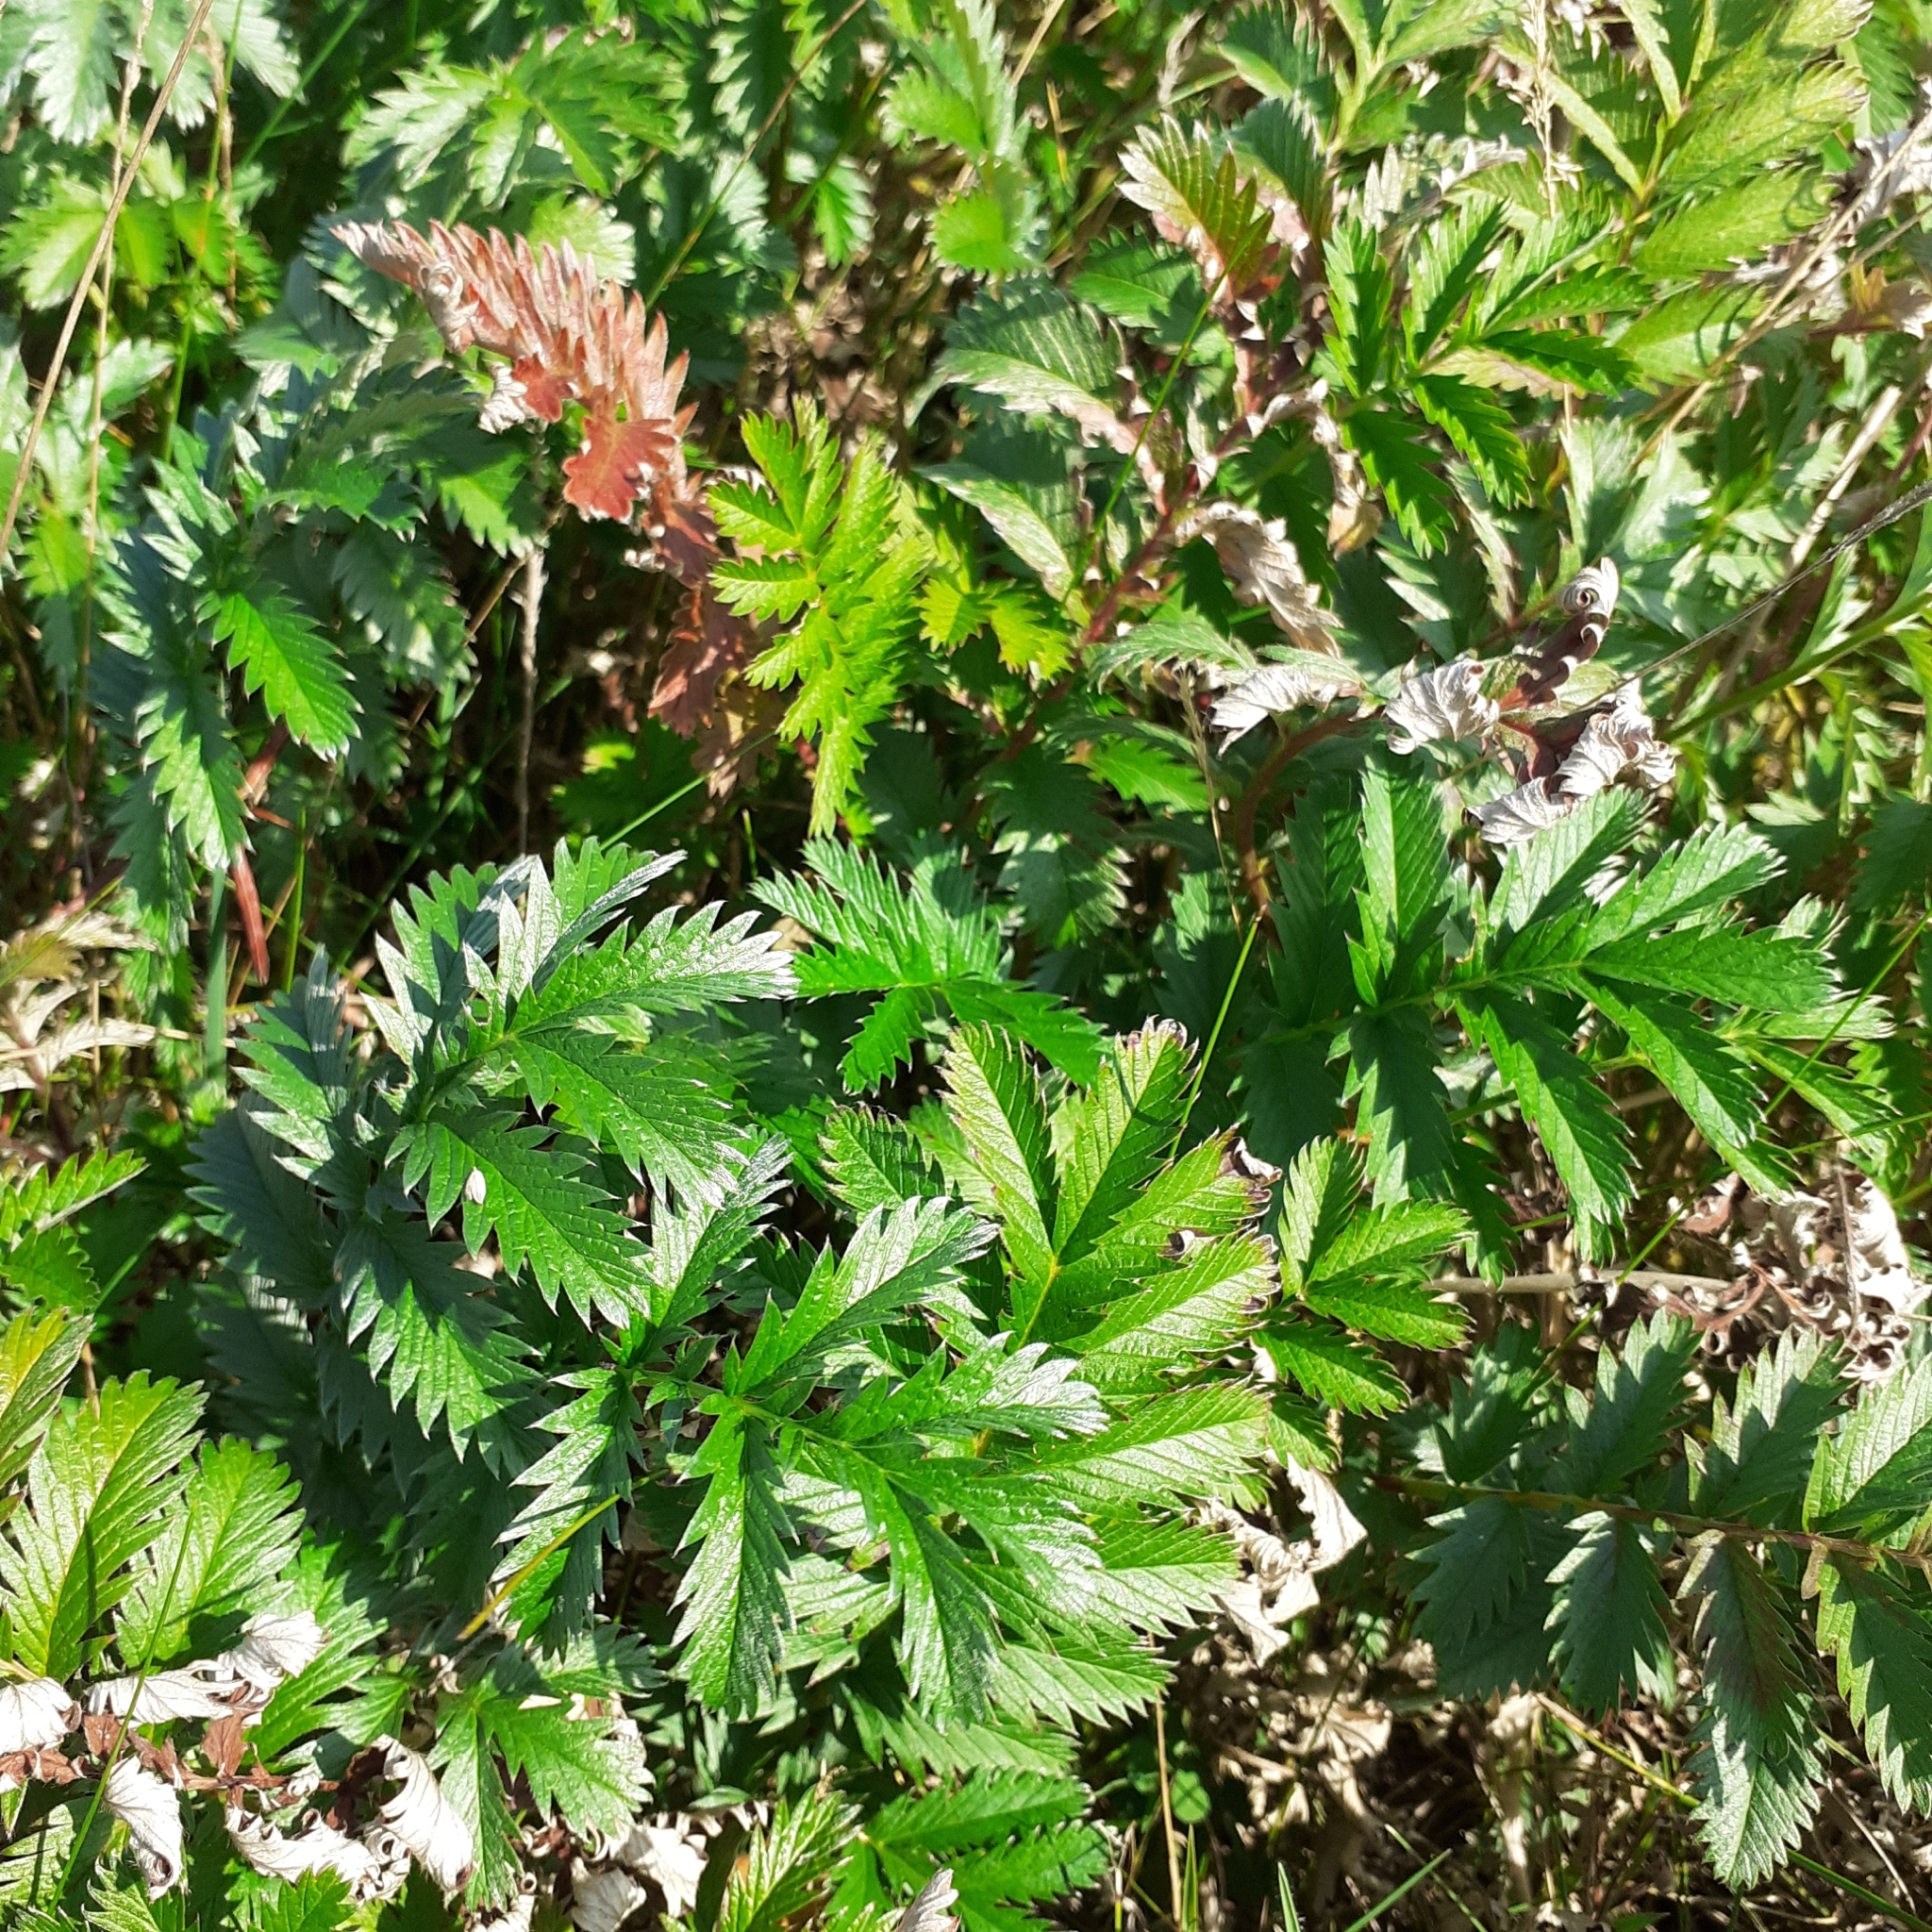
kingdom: Plantae
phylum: Tracheophyta
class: Magnoliopsida
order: Rosales
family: Rosaceae
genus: Argentina
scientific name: Argentina anserina
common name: Common silverweed
